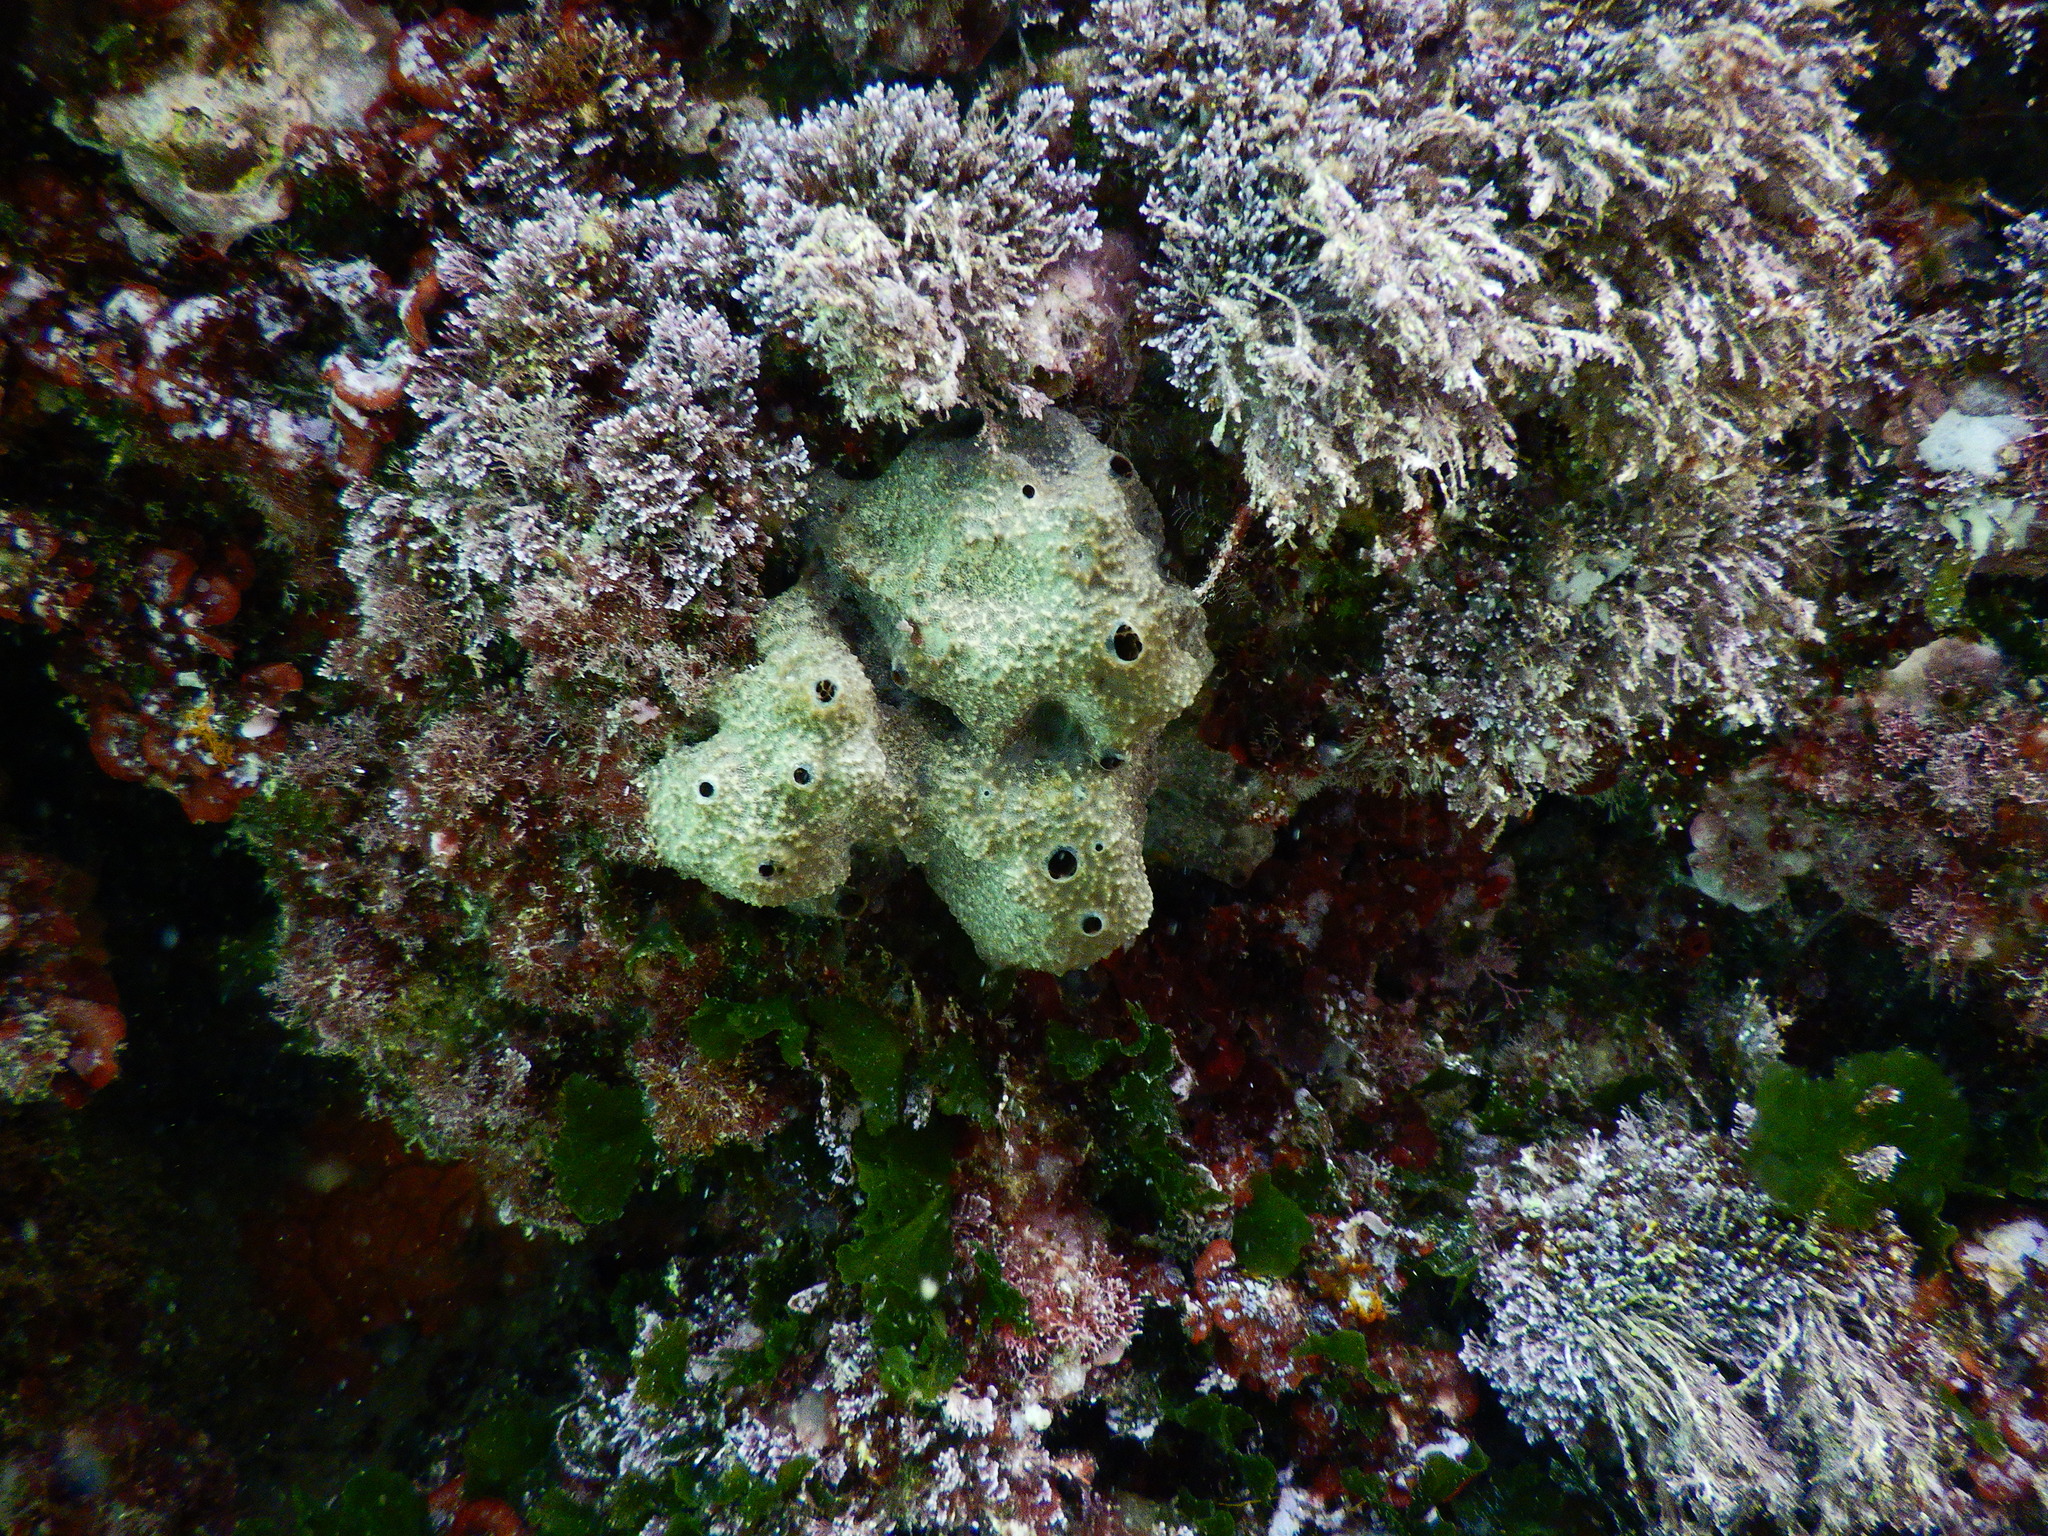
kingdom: Animalia
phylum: Porifera
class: Demospongiae
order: Dictyoceratida
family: Irciniidae
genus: Ircinia
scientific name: Ircinia variabilis
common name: Variable loggerhead sponge
